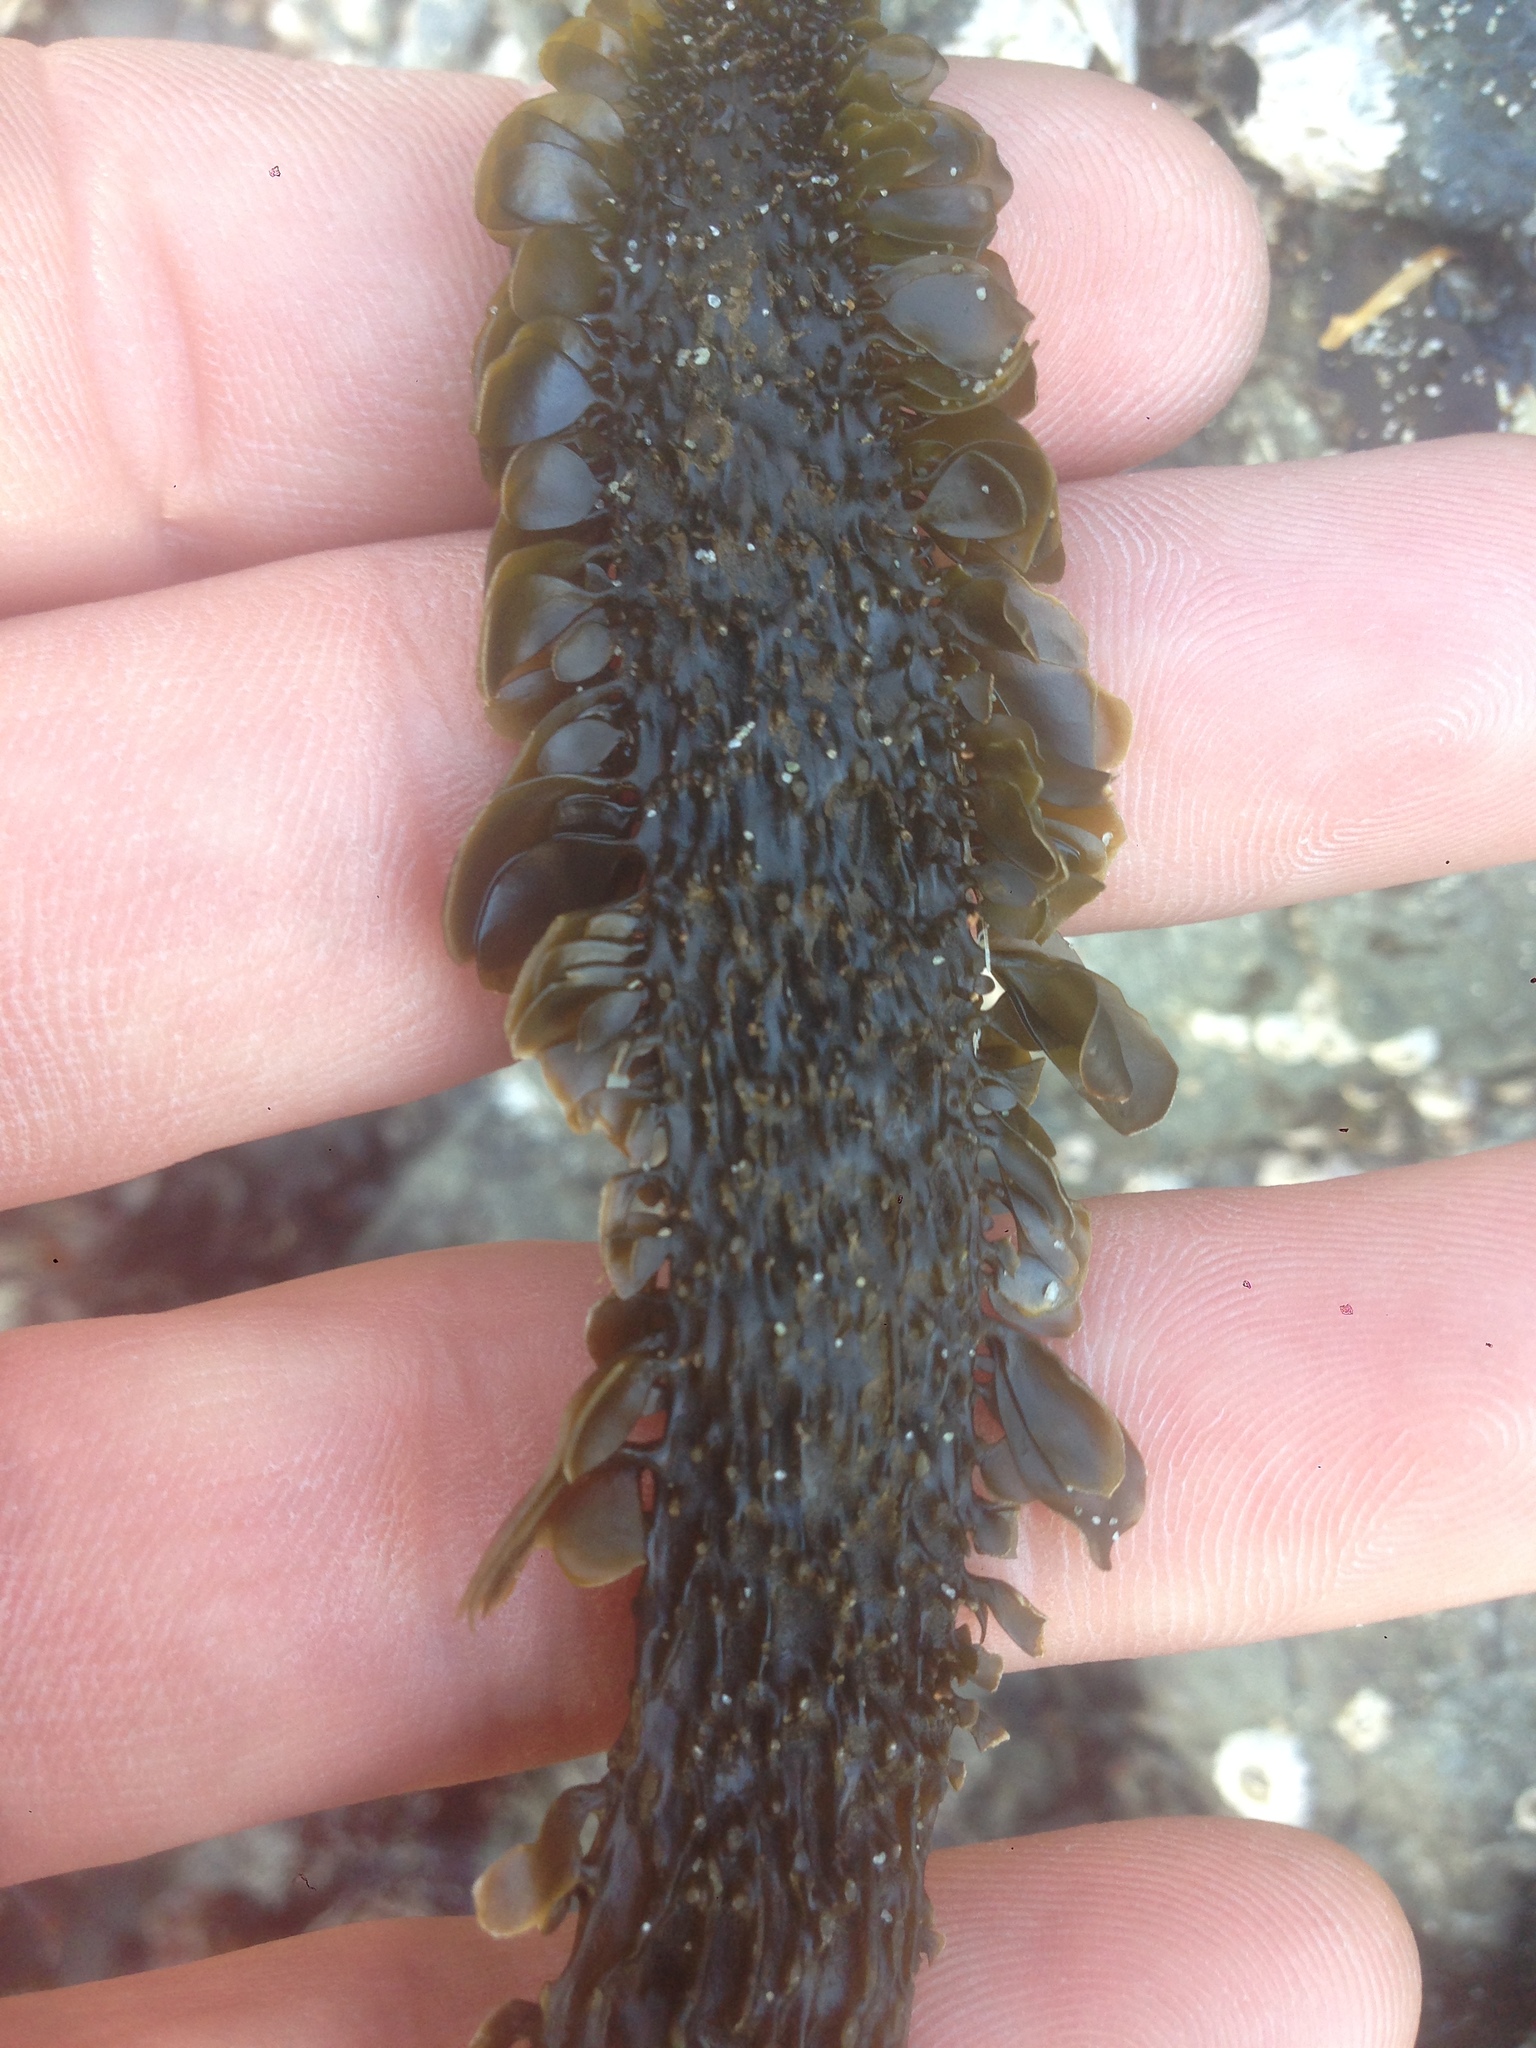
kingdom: Chromista
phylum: Ochrophyta
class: Phaeophyceae
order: Laminariales
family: Lessoniaceae
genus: Egregia
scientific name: Egregia menziesii
